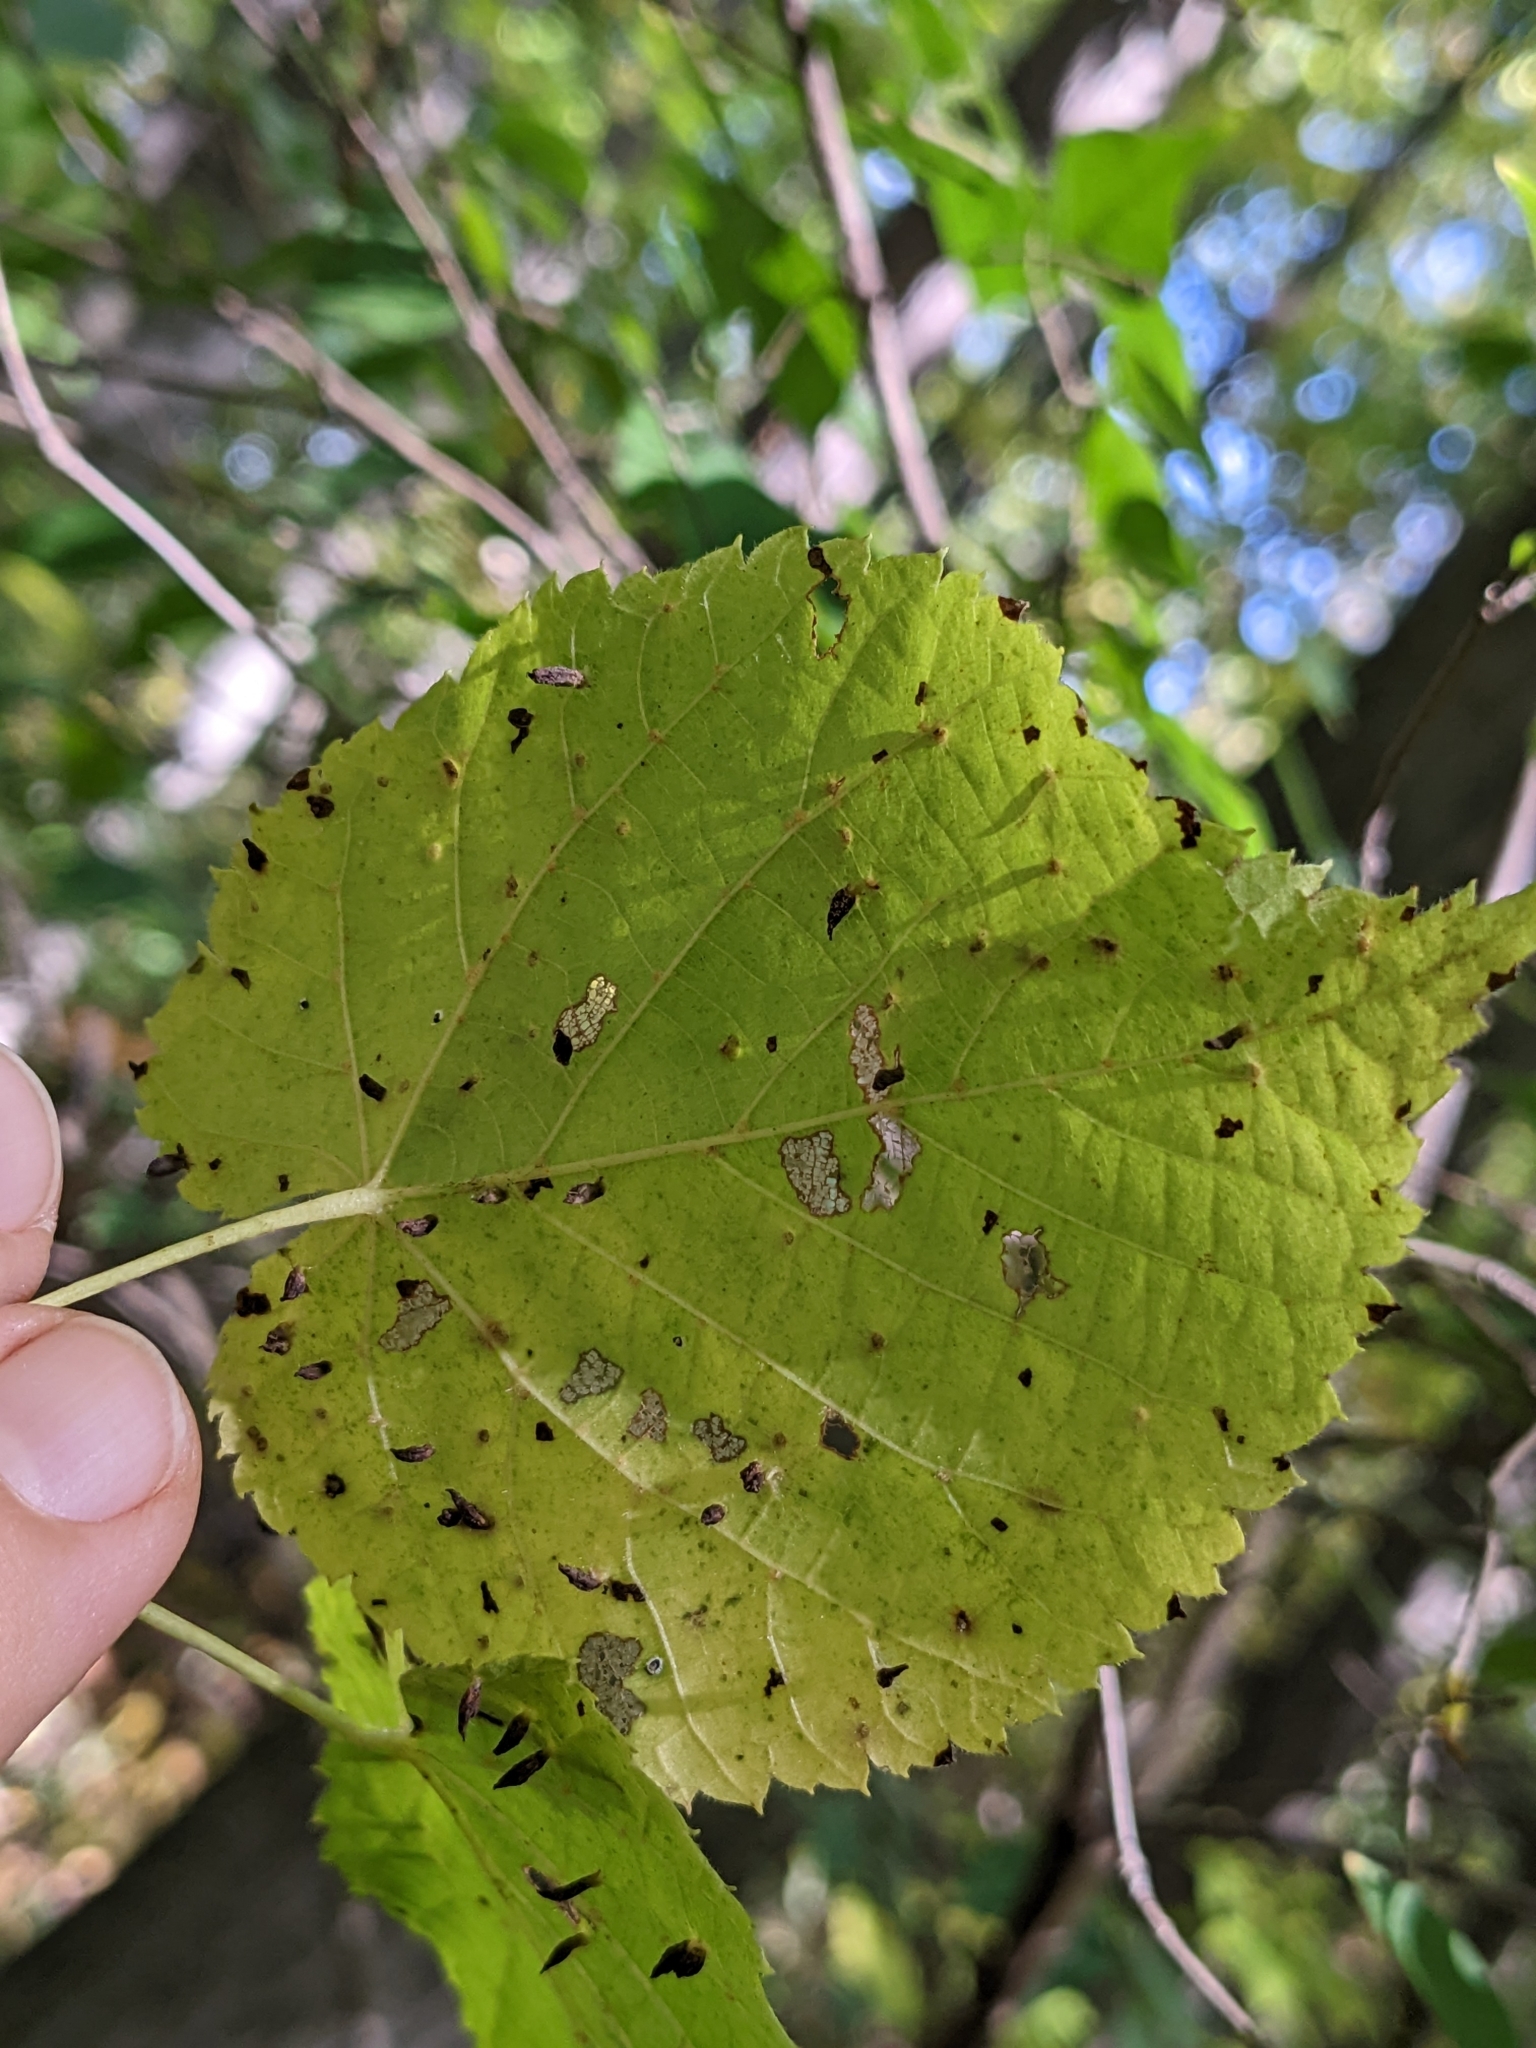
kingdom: Animalia
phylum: Arthropoda
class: Arachnida
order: Trombidiformes
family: Eriophyidae
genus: Eriophyes
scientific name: Eriophyes tiliae
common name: Red nail gall mite
